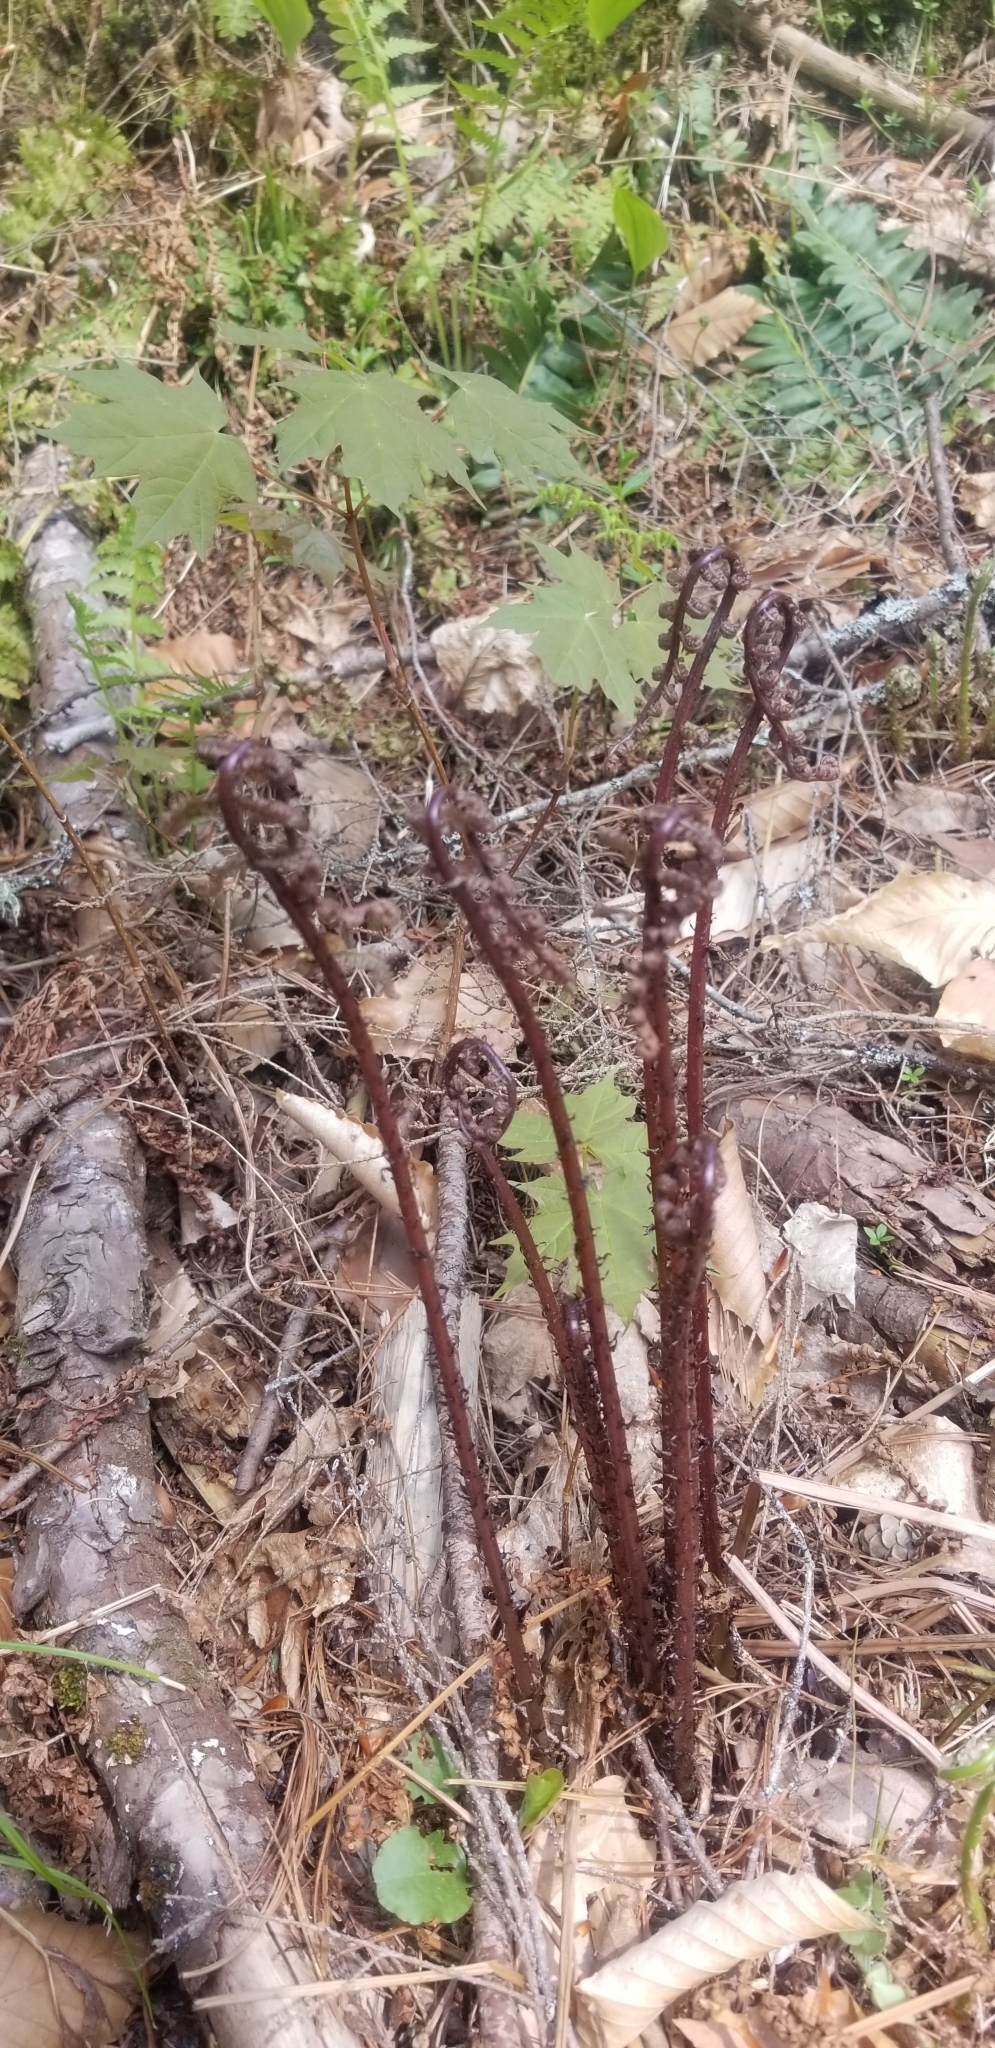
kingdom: Plantae
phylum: Tracheophyta
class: Polypodiopsida
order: Polypodiales
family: Athyriaceae
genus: Athyrium
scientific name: Athyrium angustum
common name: Northern lady fern
